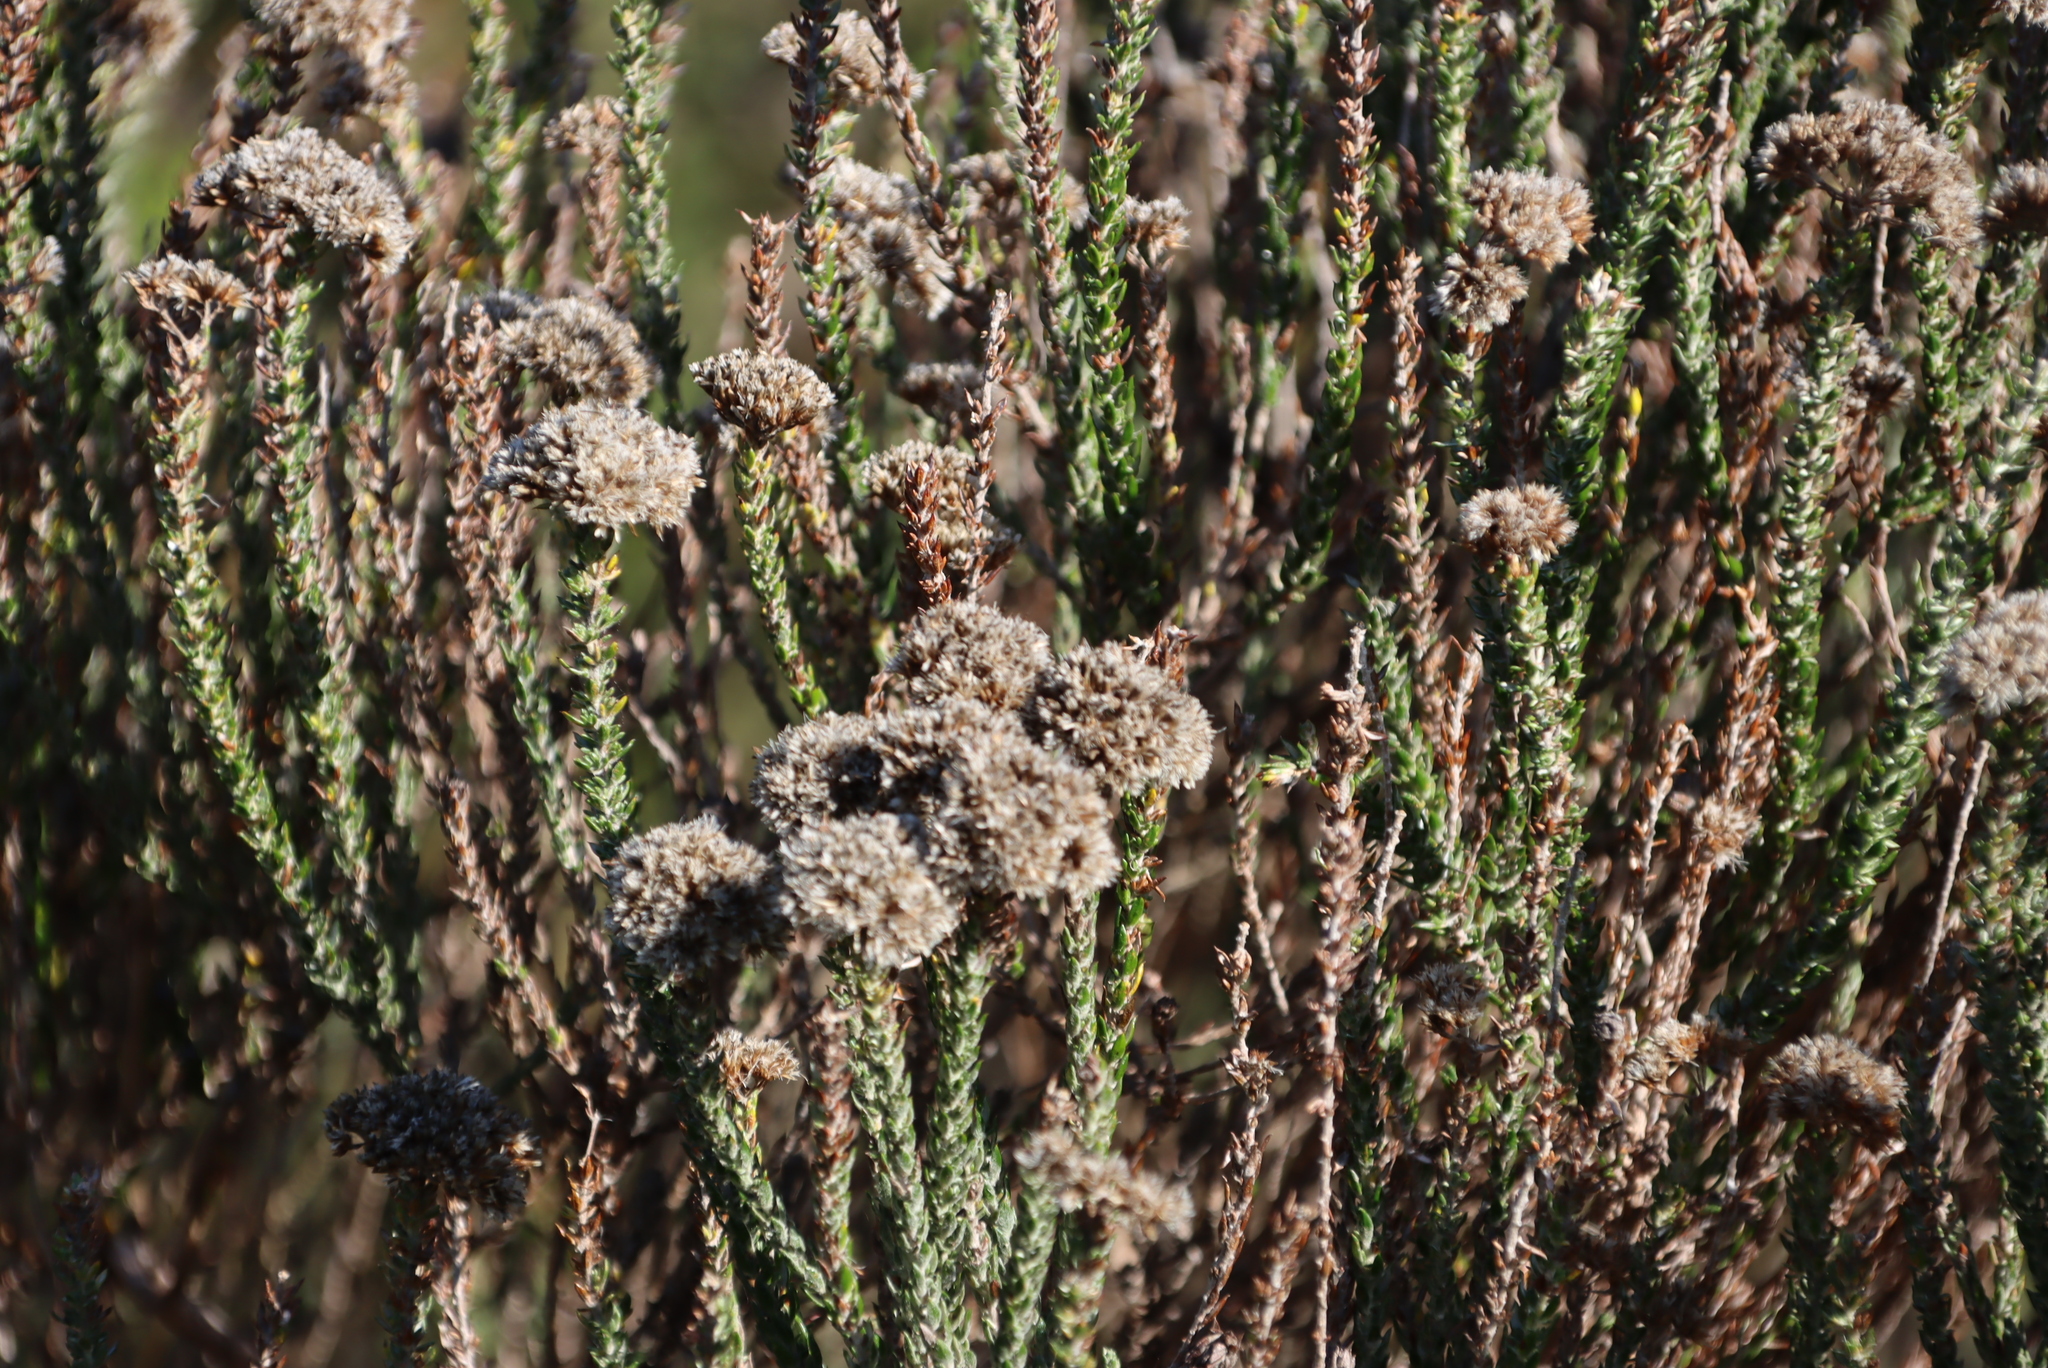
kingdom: Plantae
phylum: Tracheophyta
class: Magnoliopsida
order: Asterales
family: Asteraceae
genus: Metalasia
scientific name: Metalasia pungens
